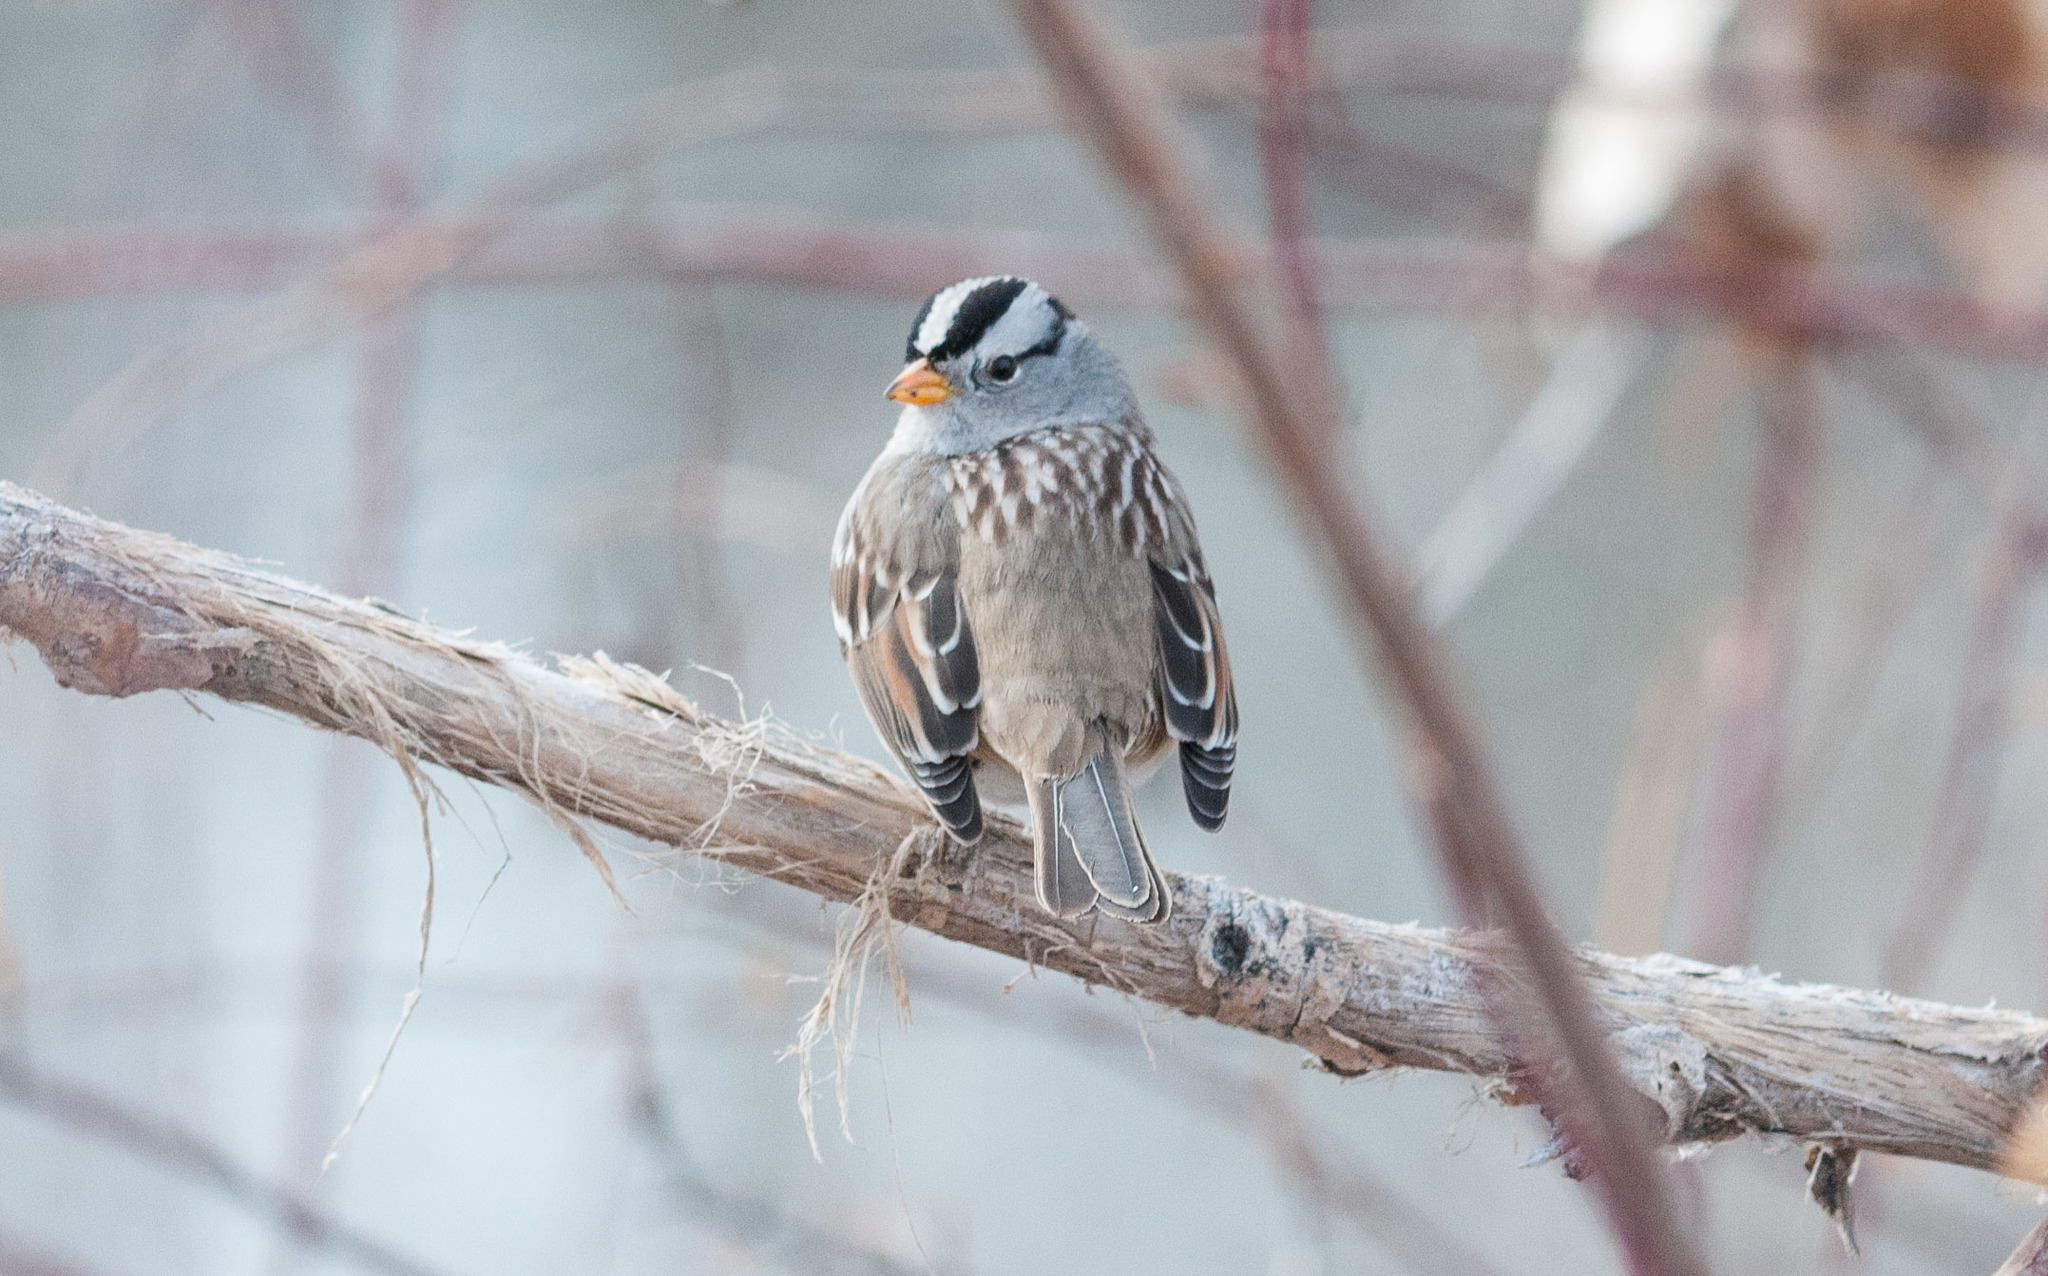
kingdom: Animalia
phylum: Chordata
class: Aves
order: Passeriformes
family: Passerellidae
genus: Zonotrichia
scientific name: Zonotrichia leucophrys
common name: White-crowned sparrow
